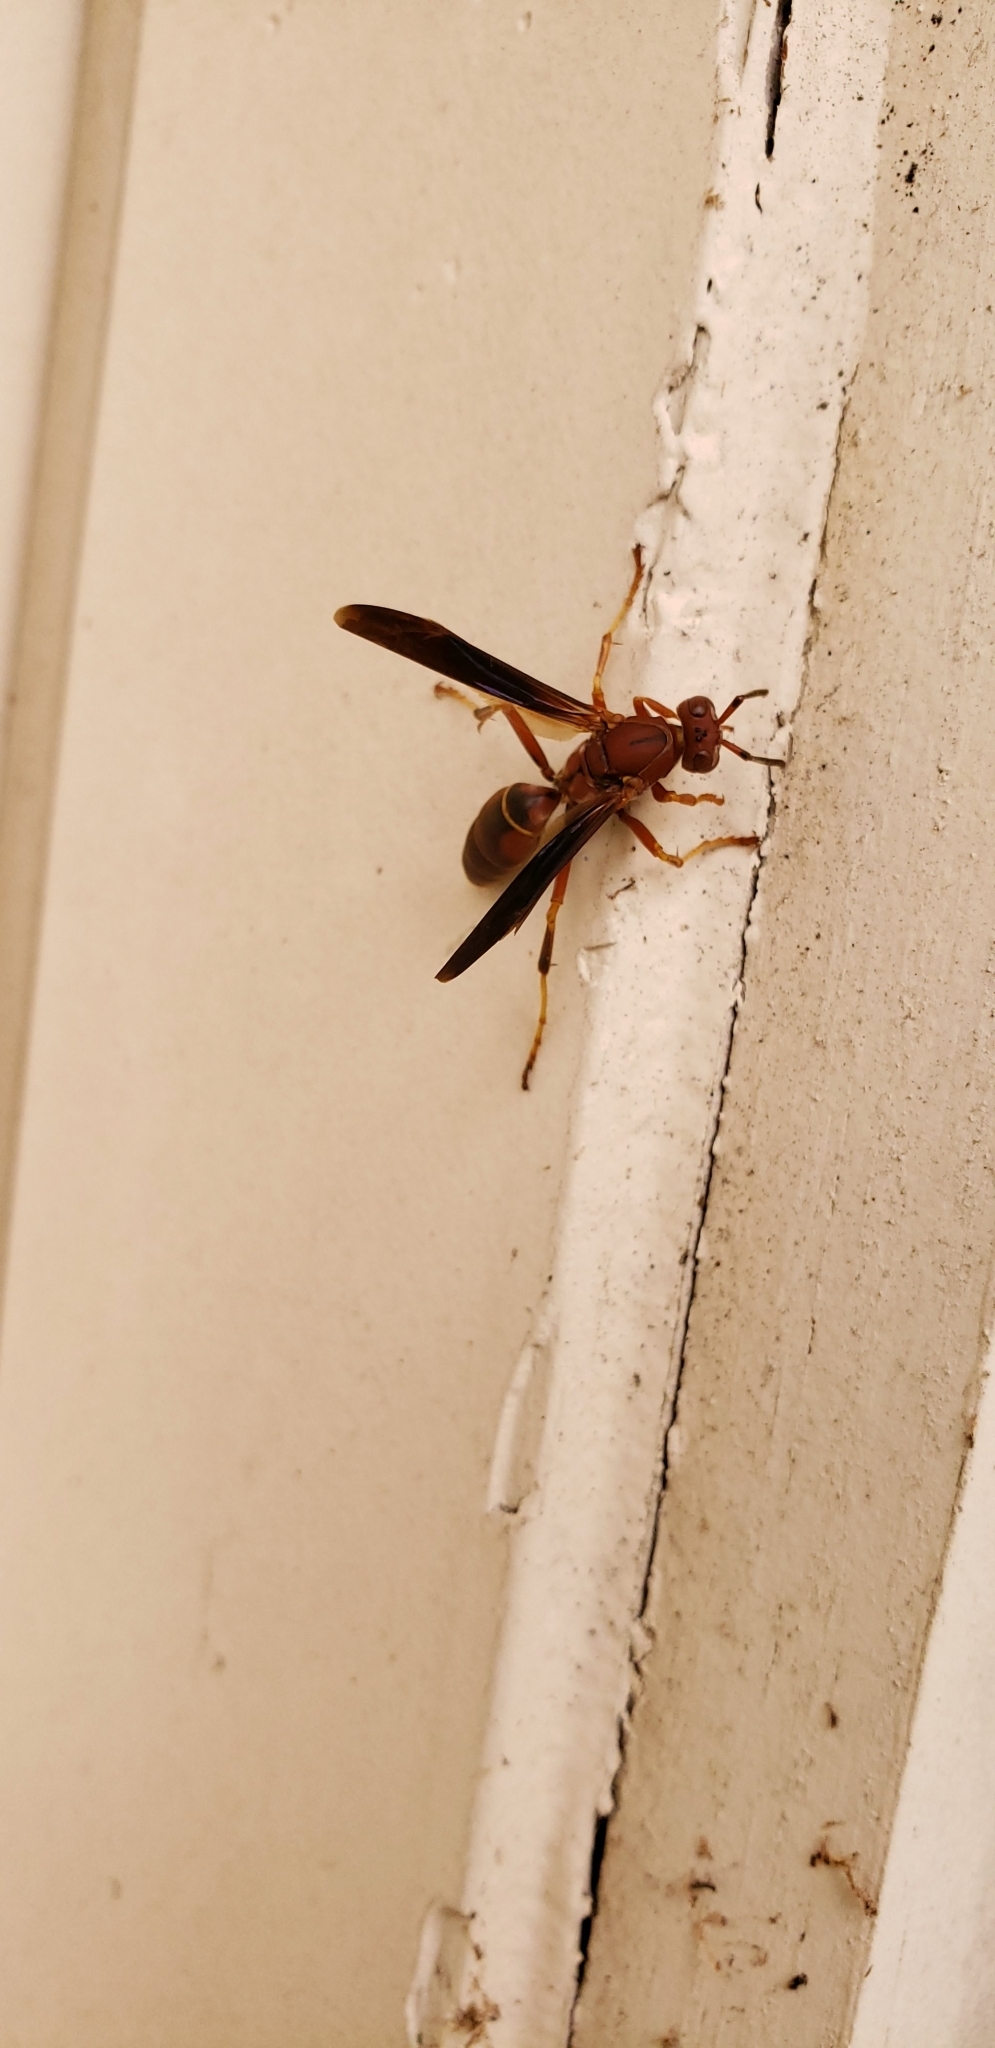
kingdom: Animalia
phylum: Arthropoda
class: Insecta
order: Hymenoptera
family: Vespidae
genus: Fuscopolistes
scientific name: Fuscopolistes
